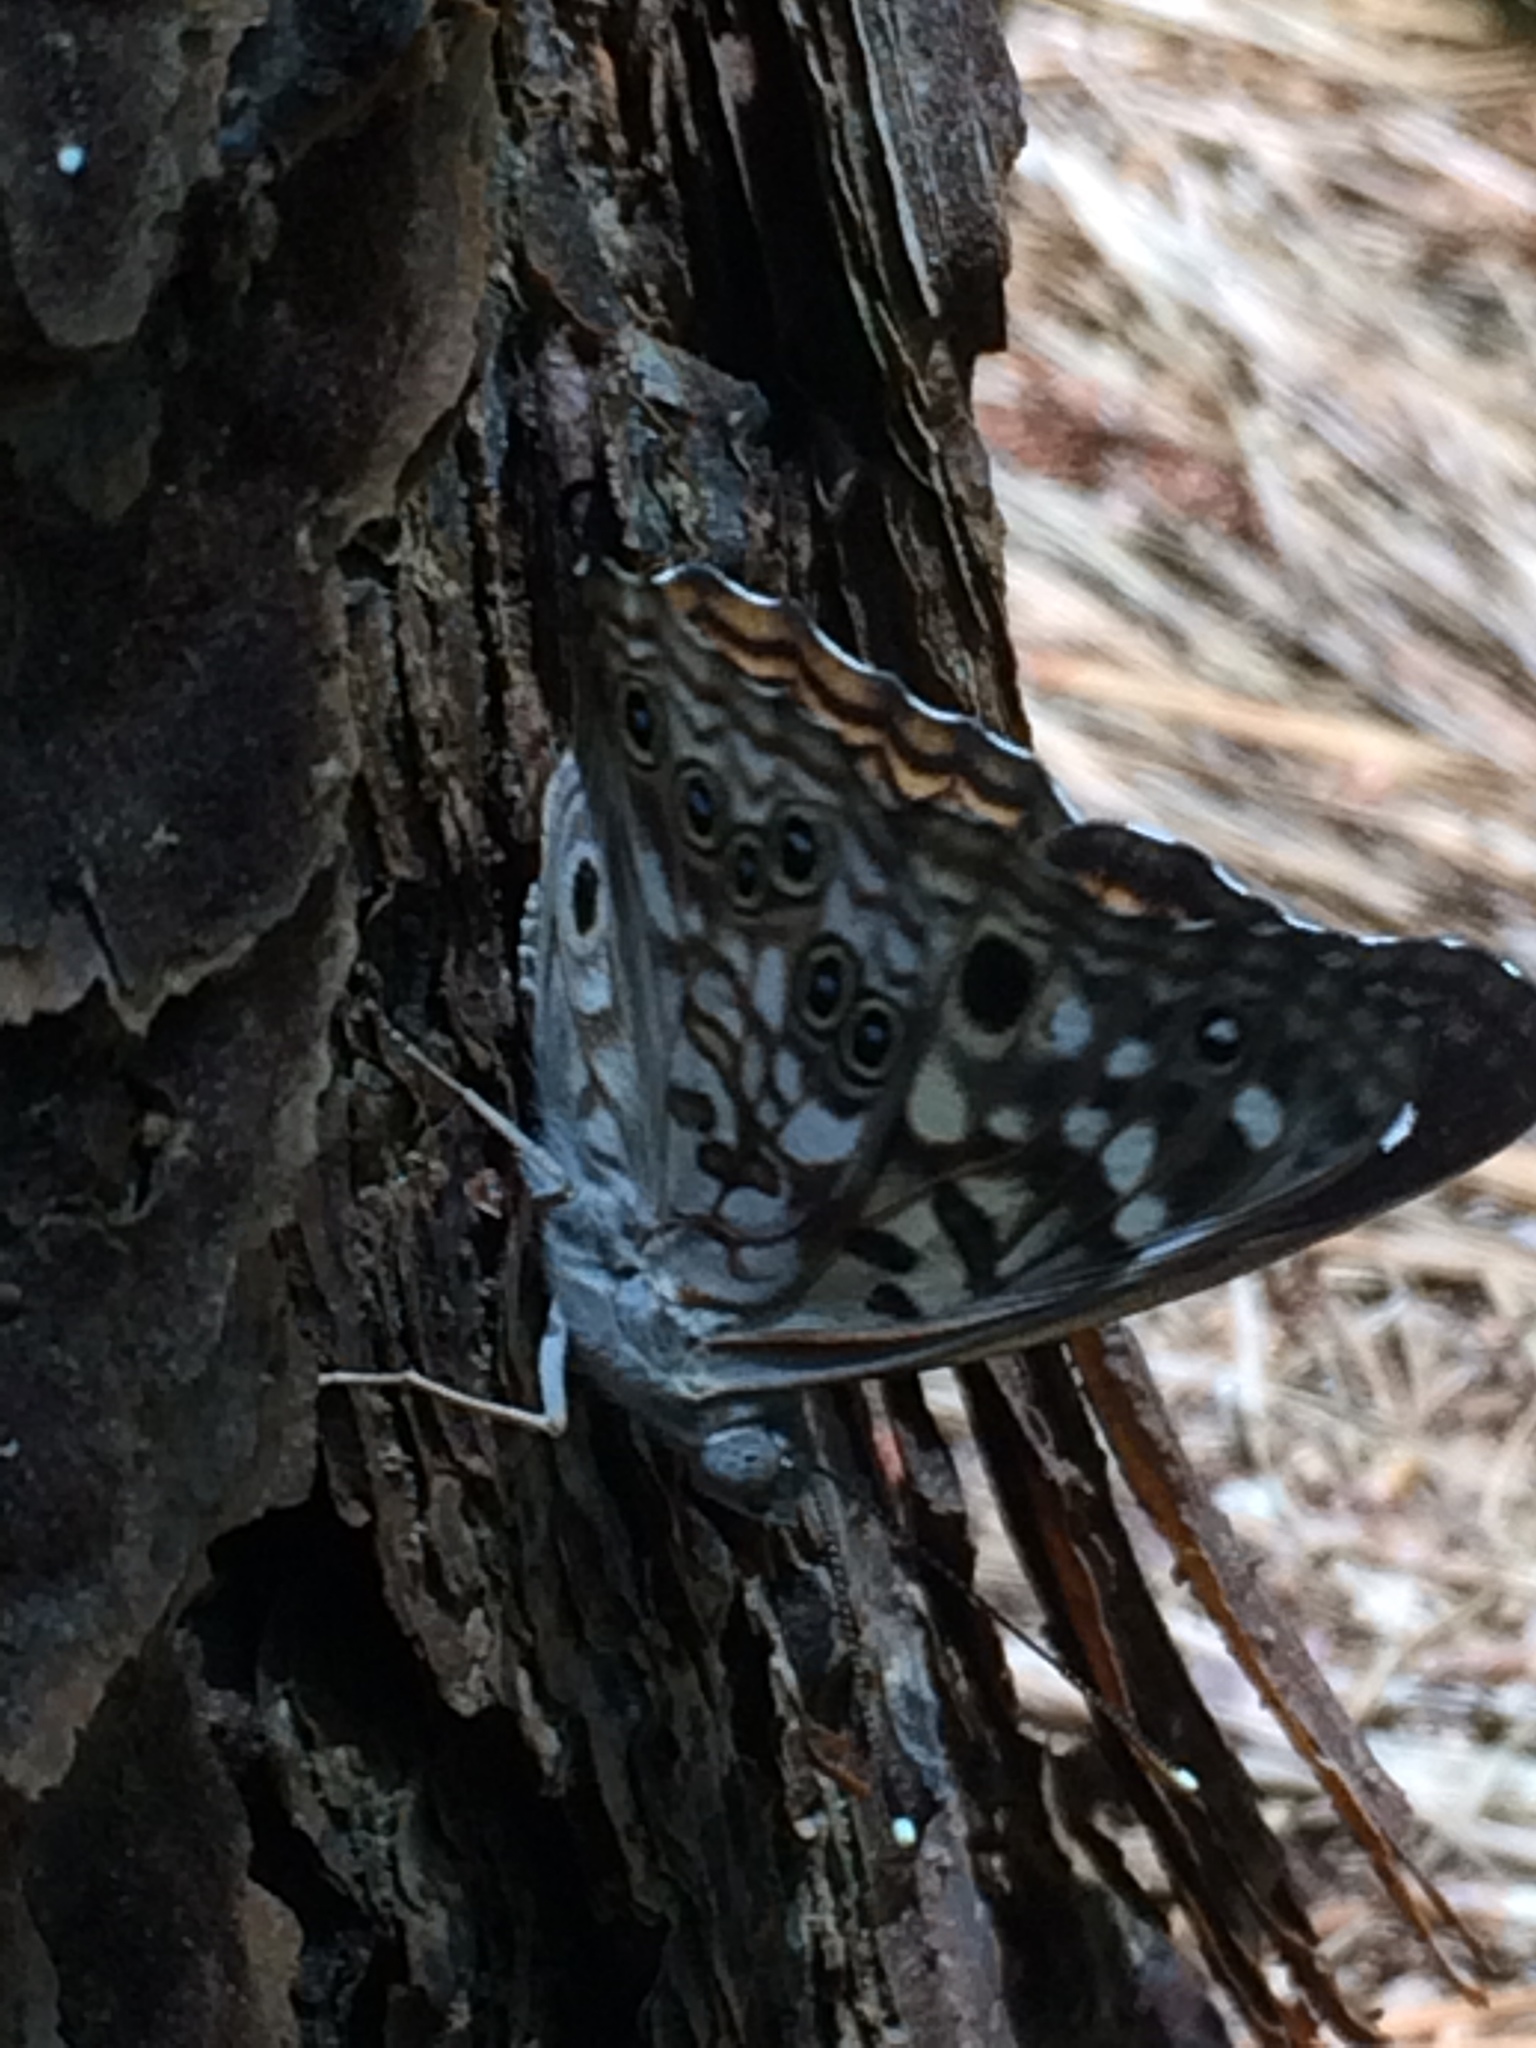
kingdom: Animalia
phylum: Arthropoda
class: Insecta
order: Lepidoptera
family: Nymphalidae
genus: Asterocampa
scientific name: Asterocampa celtis
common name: Hackberry emperor
